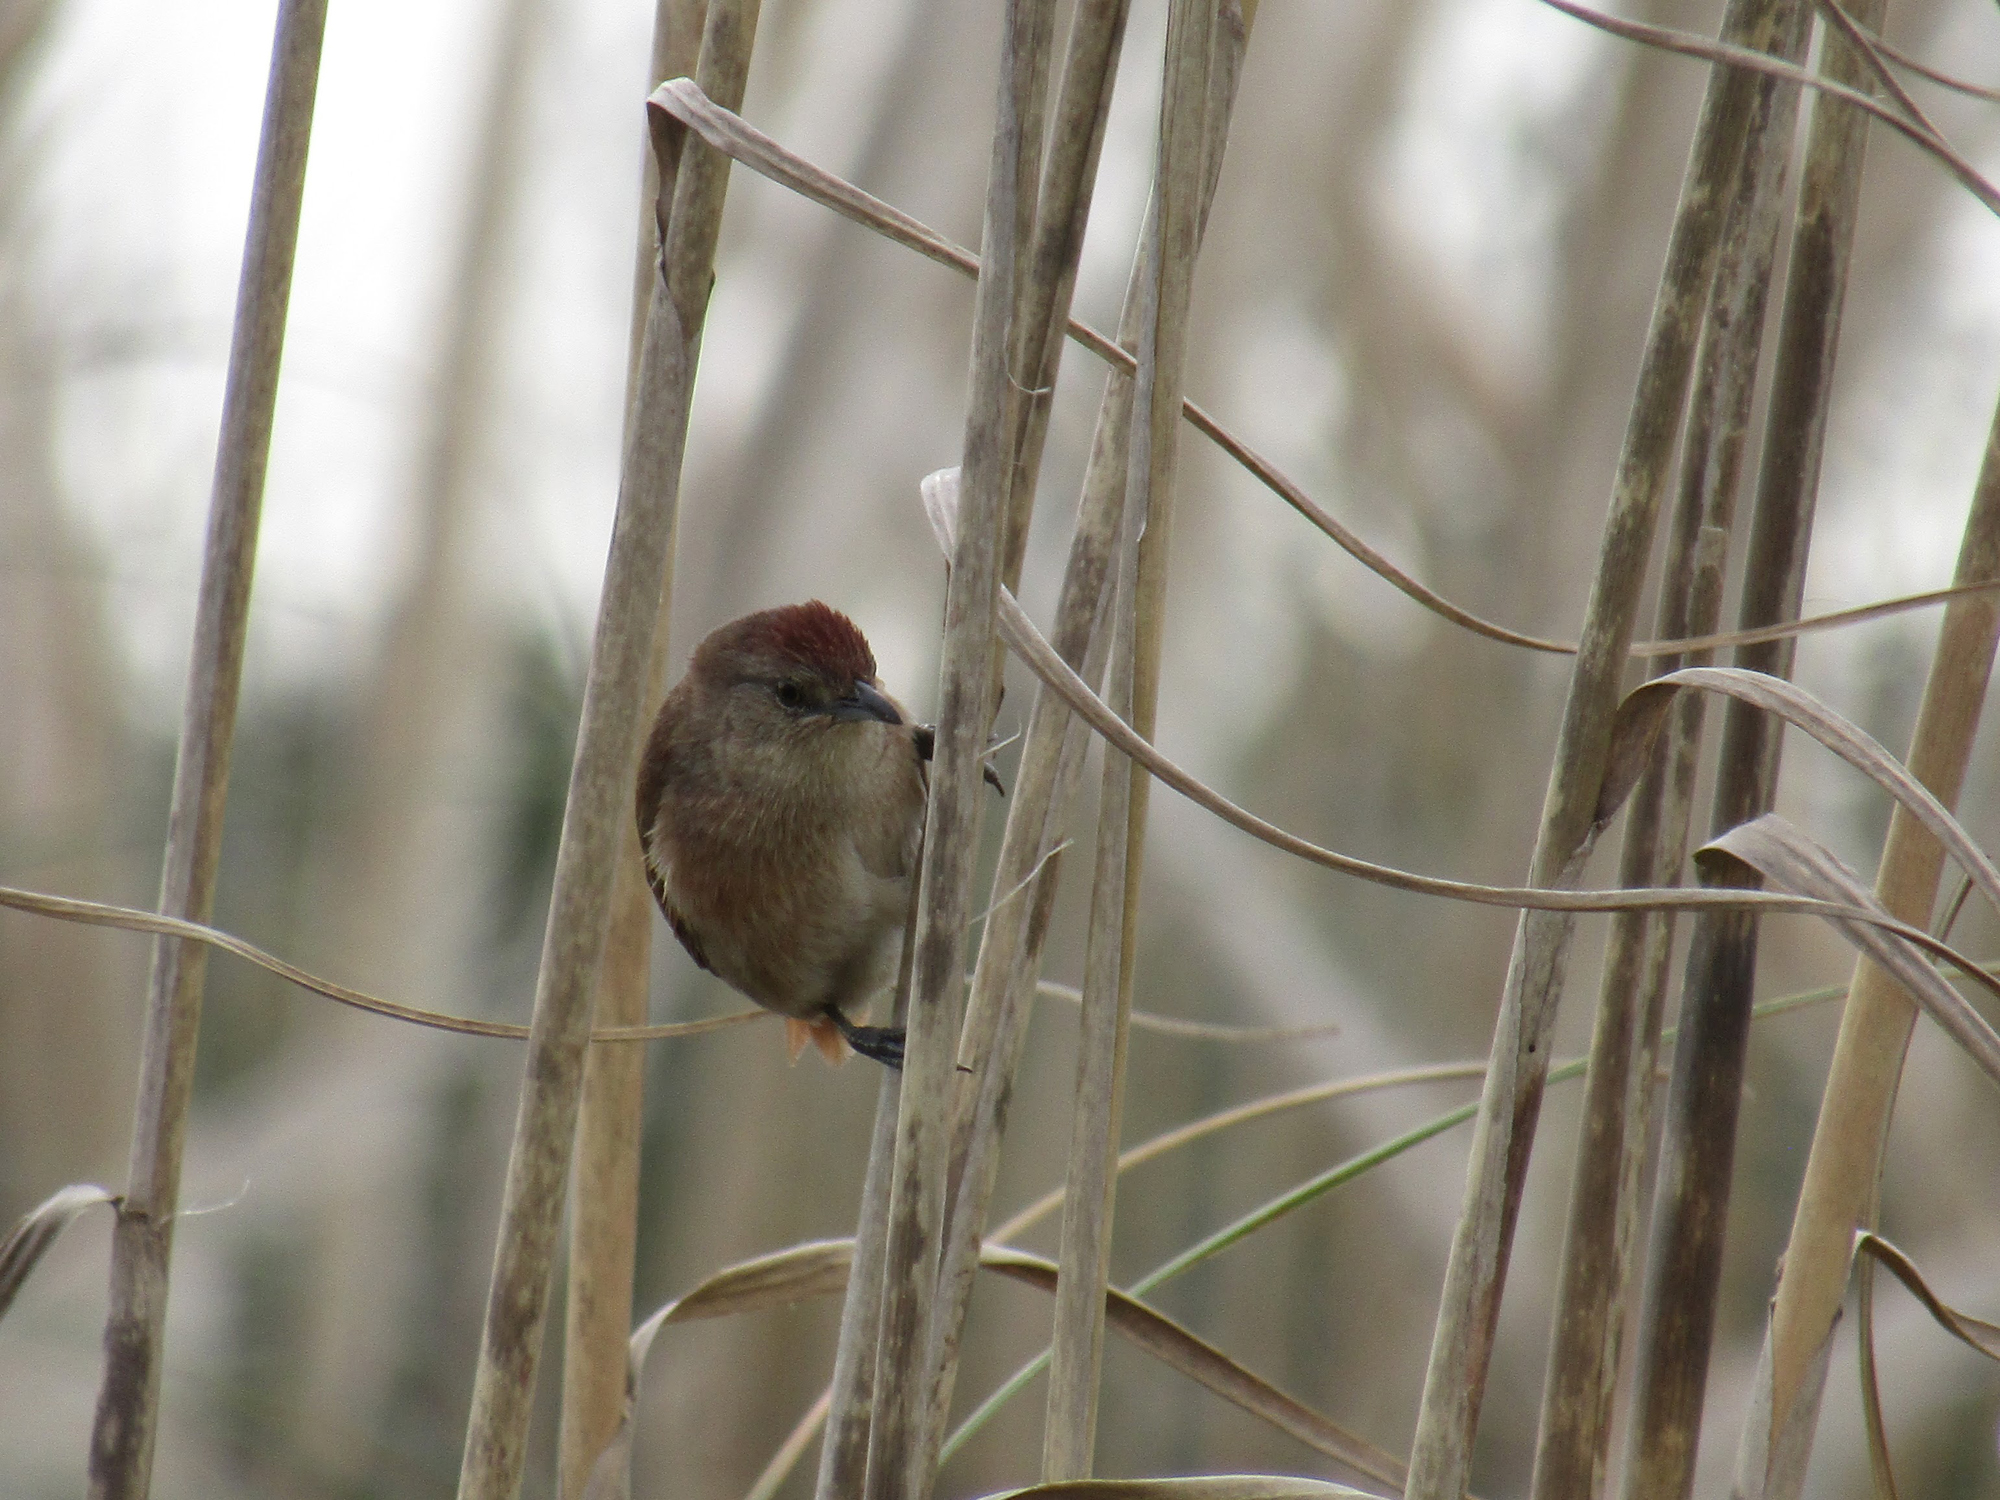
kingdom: Animalia
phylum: Chordata
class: Aves
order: Passeriformes
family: Furnariidae
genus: Phacellodomus
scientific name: Phacellodomus striaticollis
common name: Freckle-breasted thornbird
